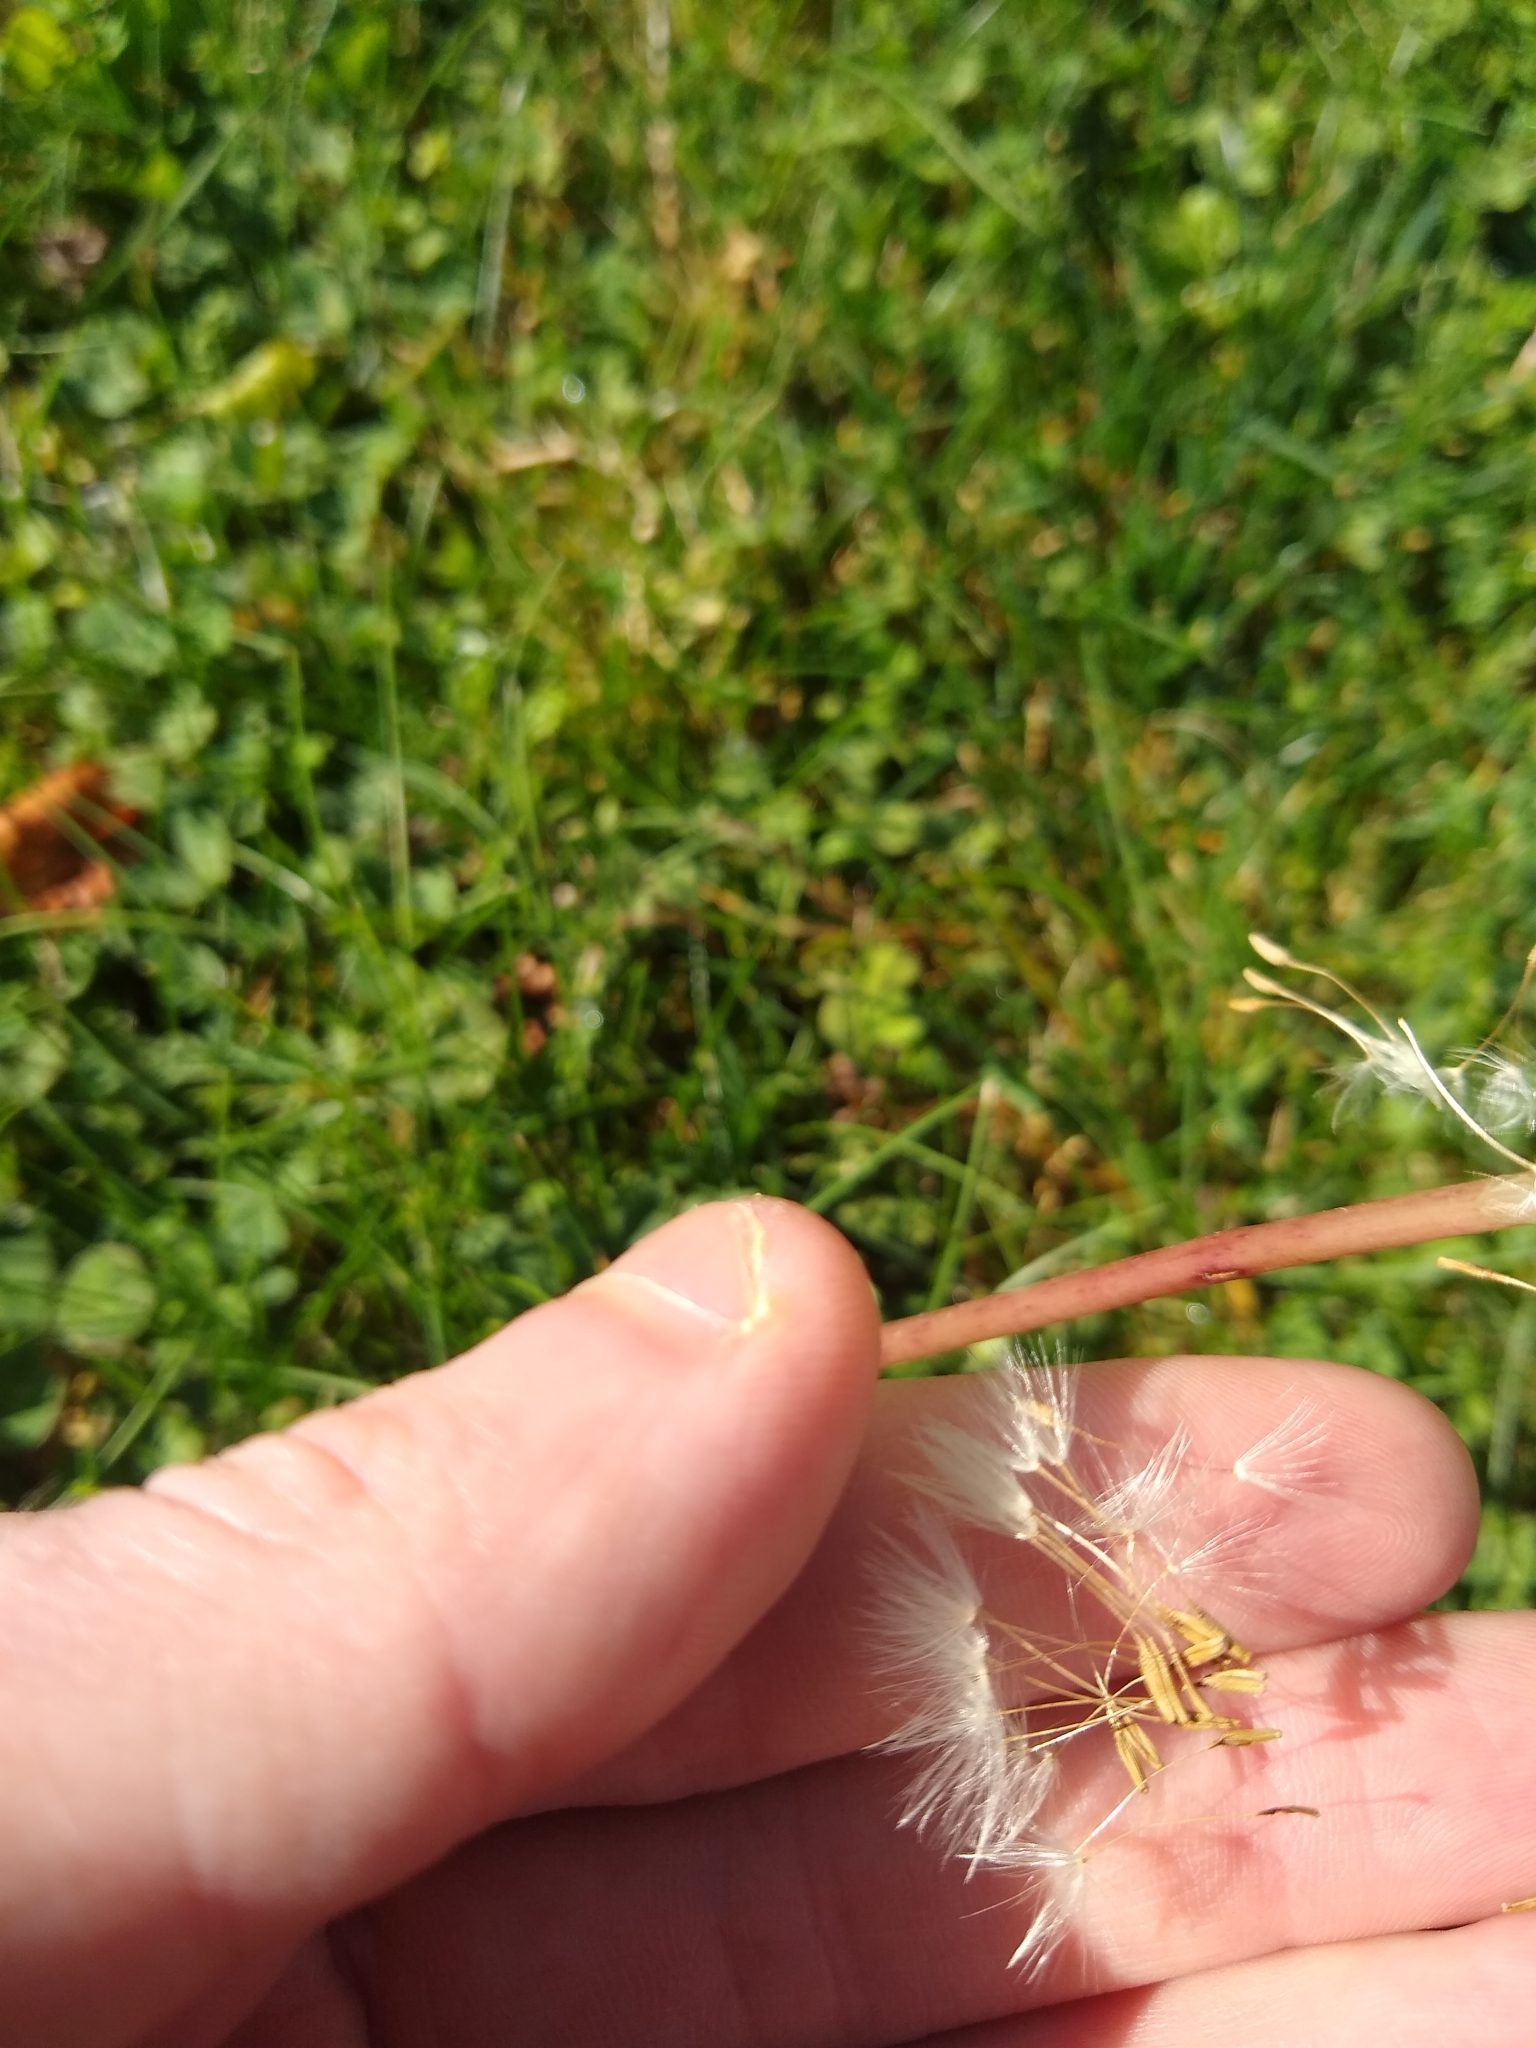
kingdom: Plantae
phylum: Tracheophyta
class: Magnoliopsida
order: Asterales
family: Asteraceae
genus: Taraxacum
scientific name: Taraxacum officinale
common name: Common dandelion
